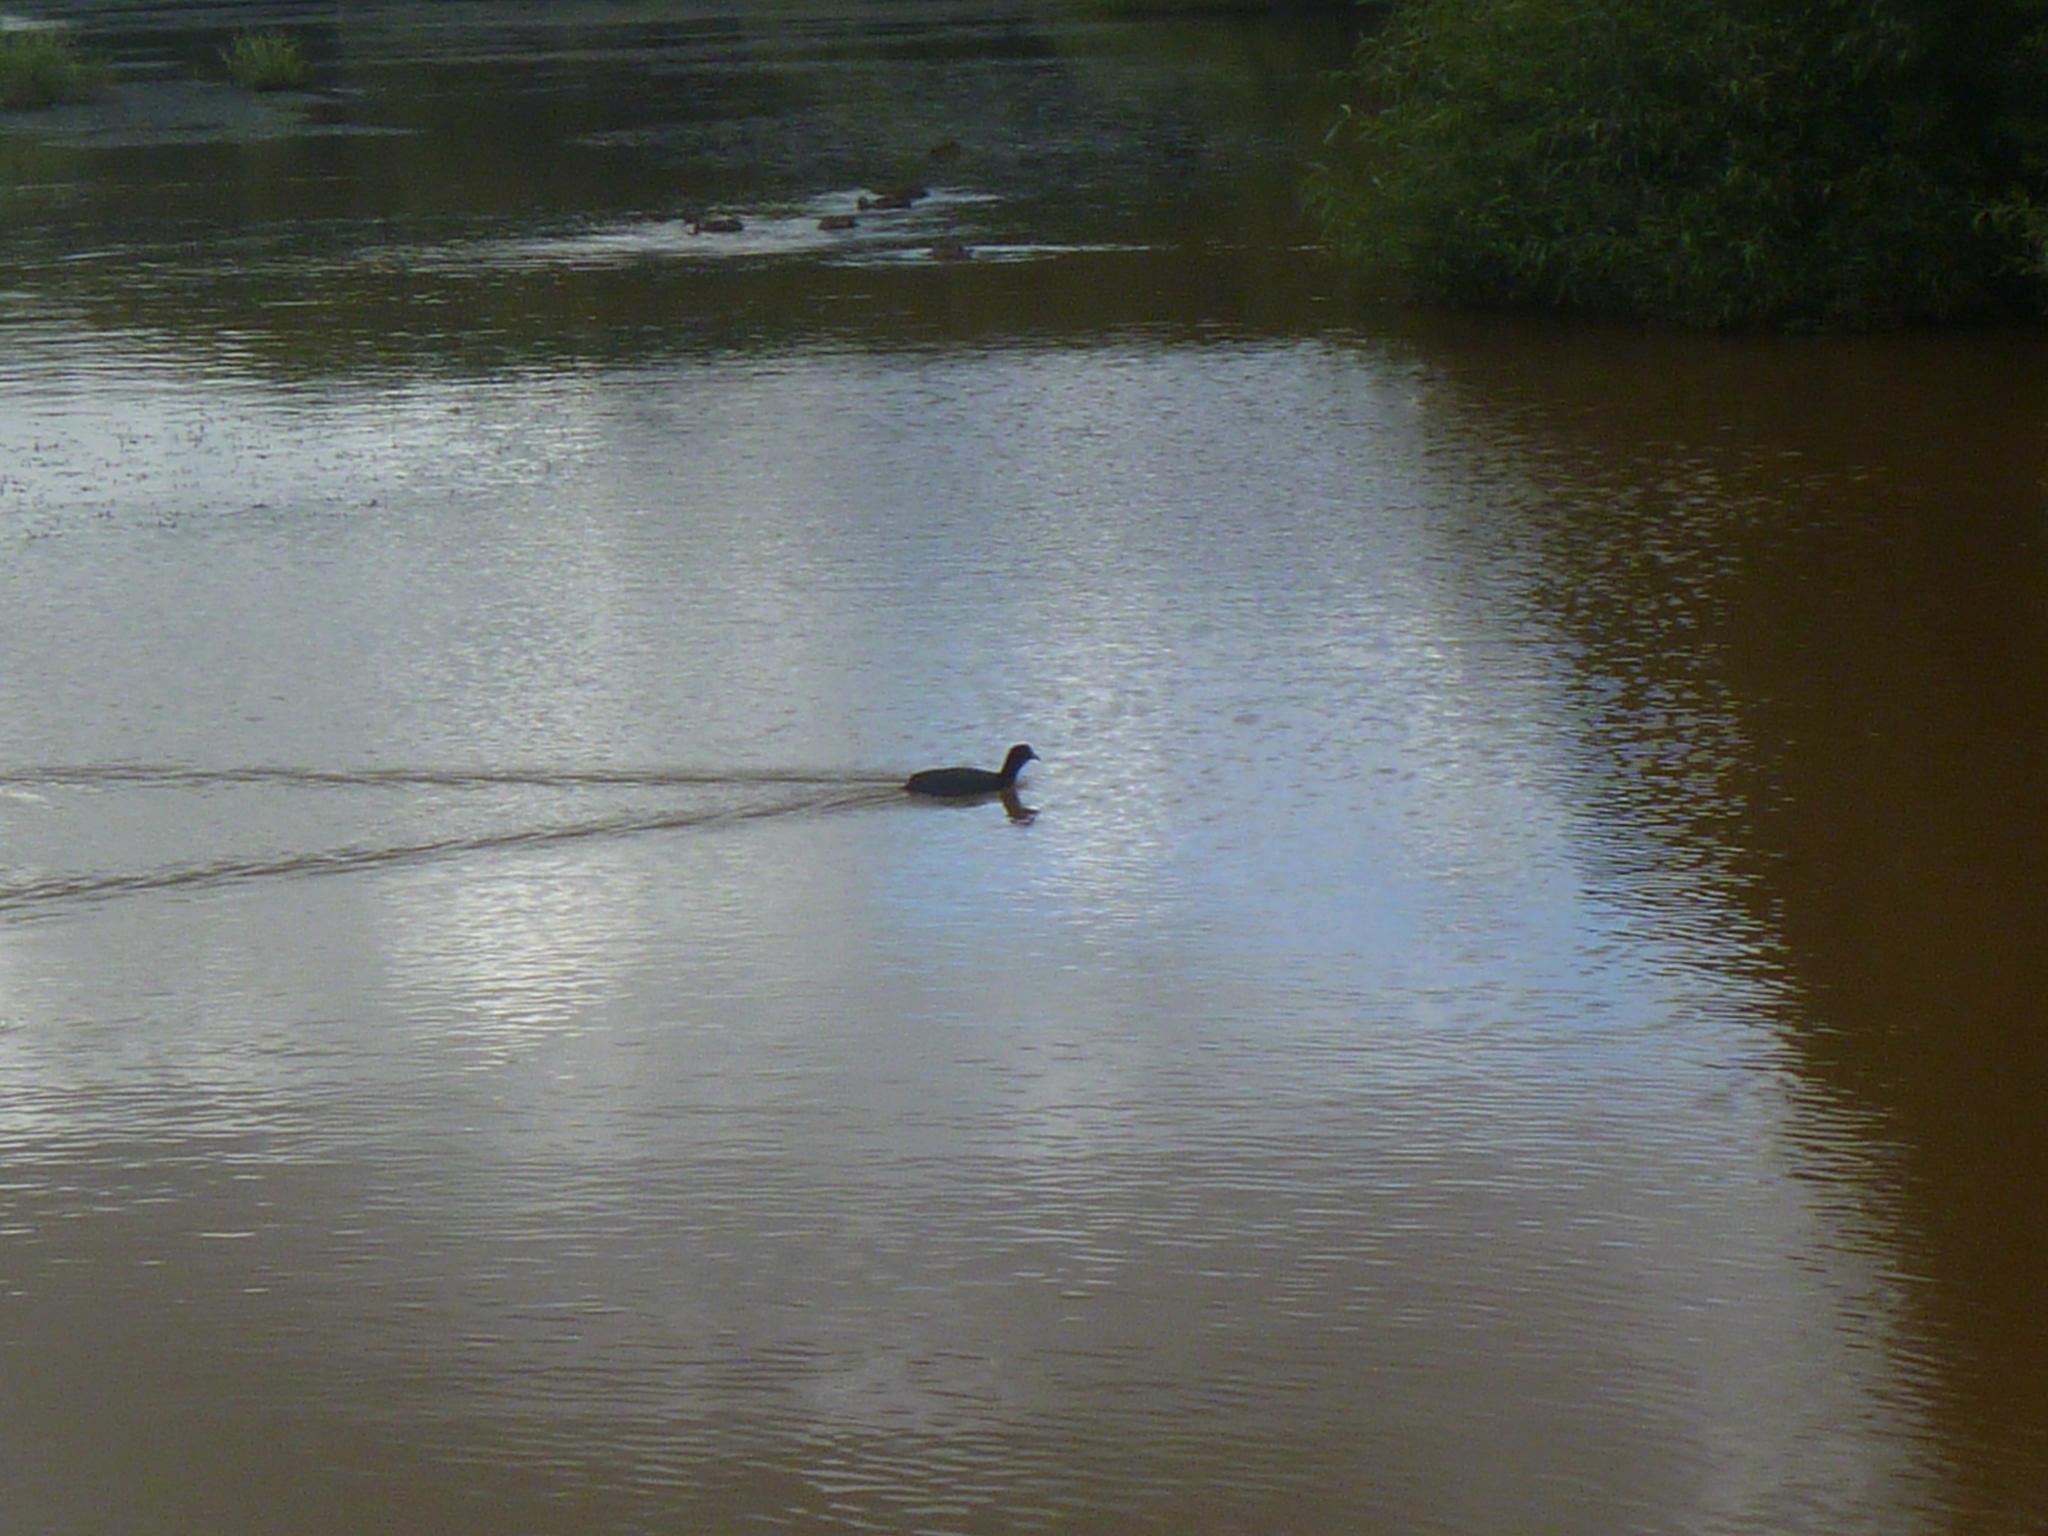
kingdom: Animalia
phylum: Chordata
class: Aves
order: Gruiformes
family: Rallidae
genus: Fulica
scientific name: Fulica atra
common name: Eurasian coot
